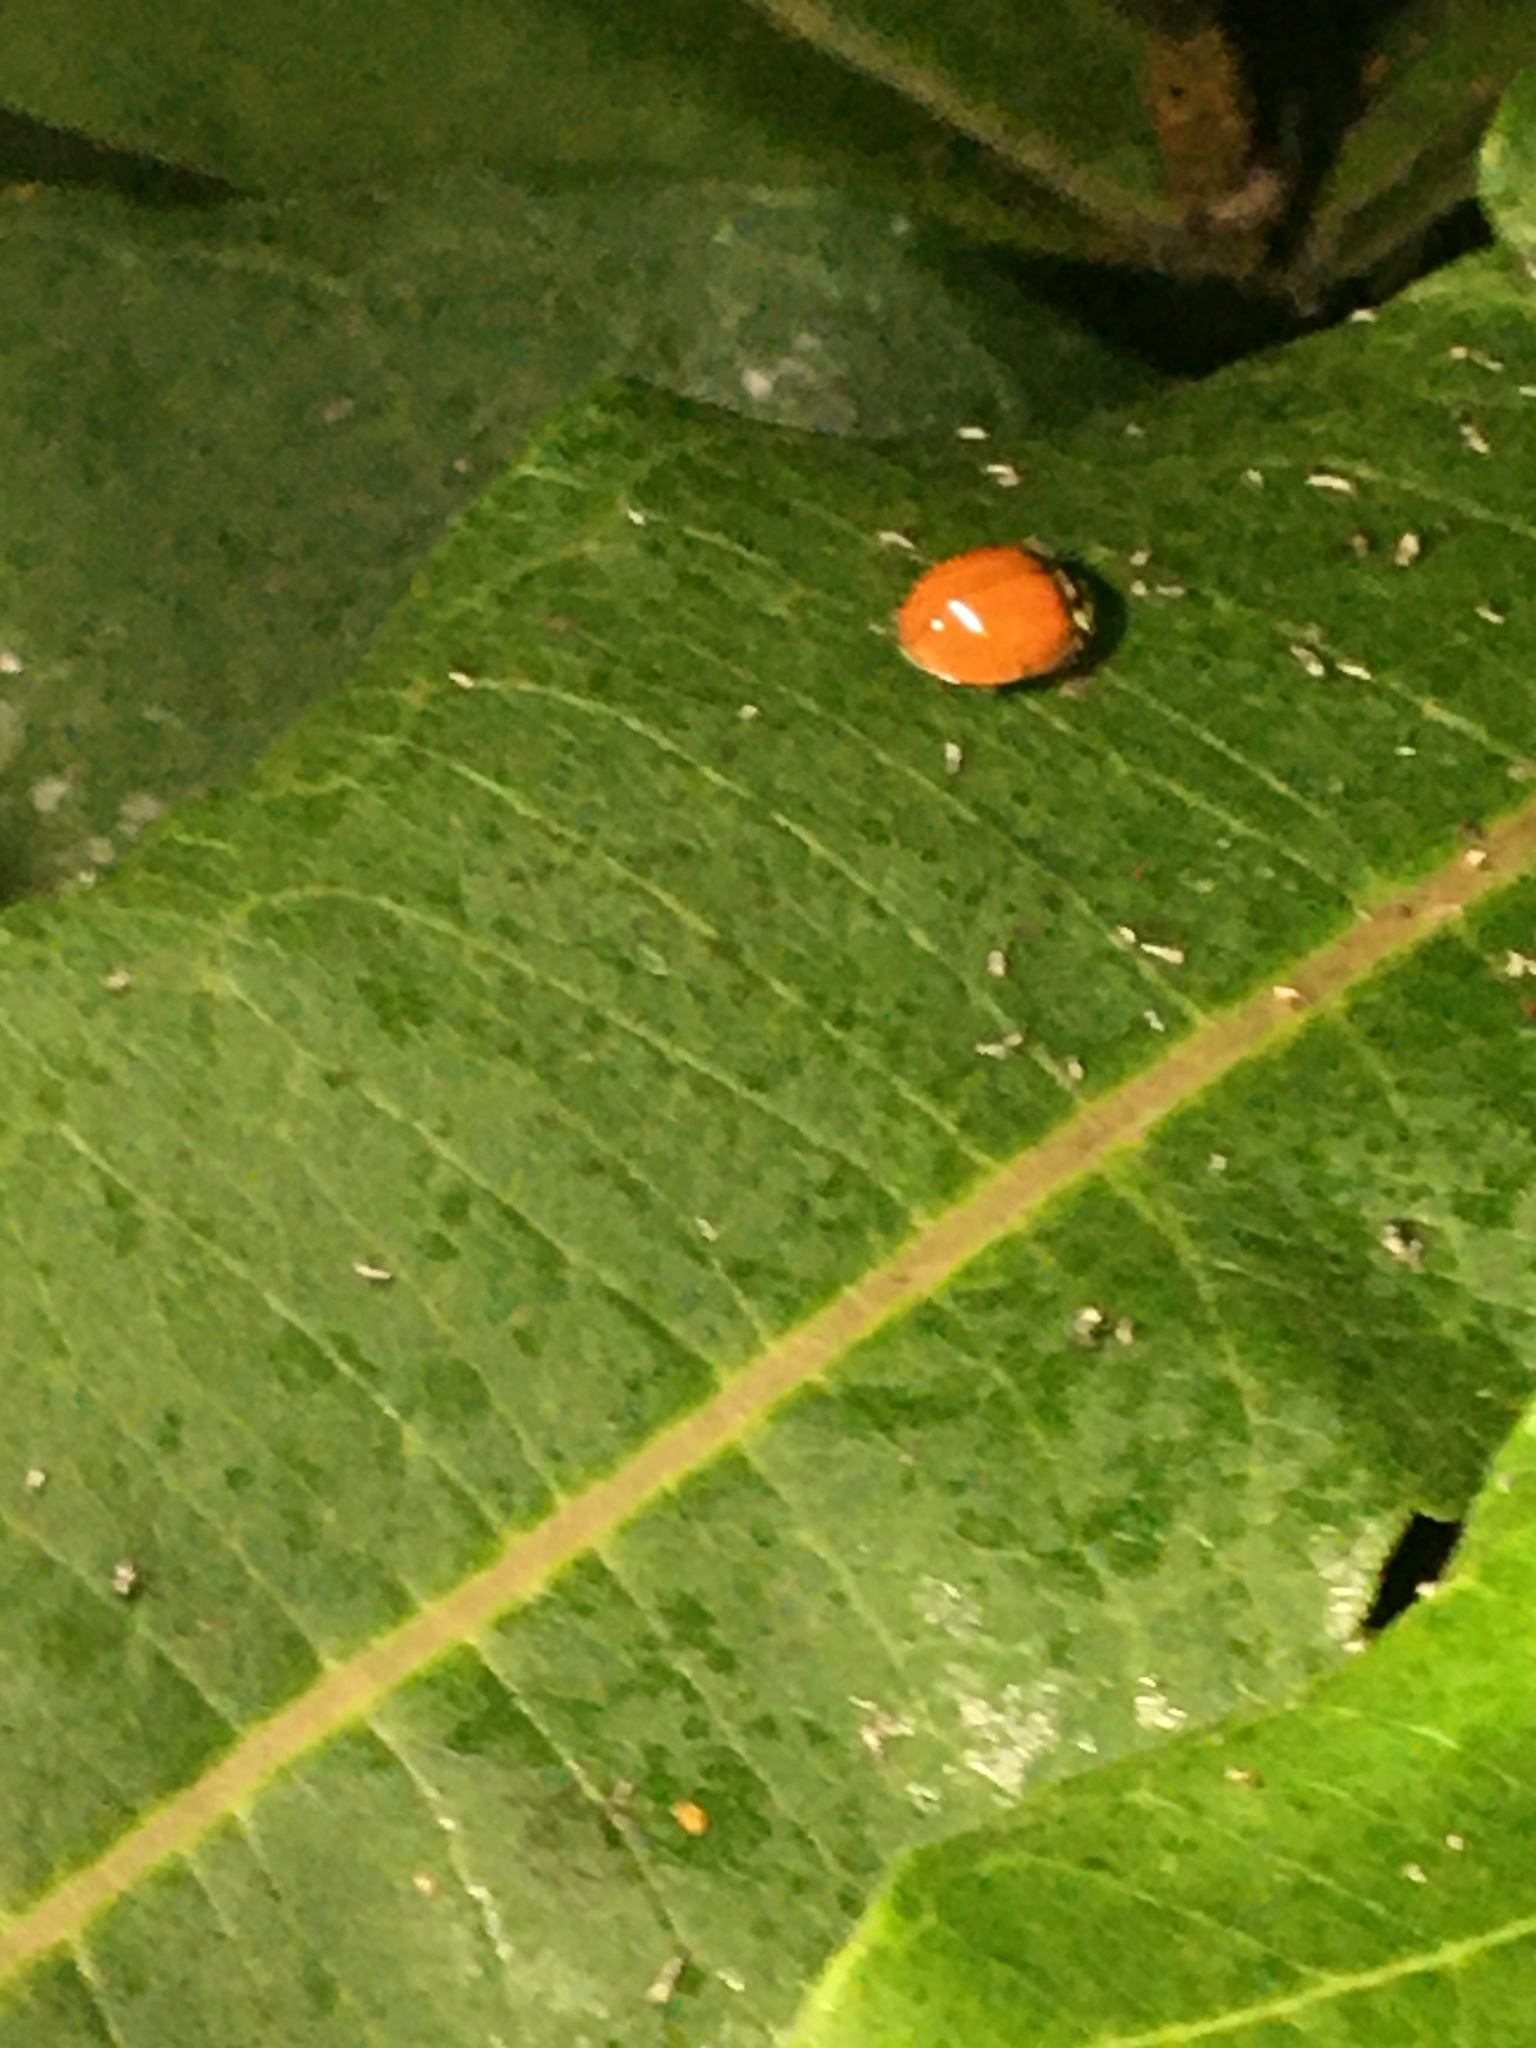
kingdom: Animalia
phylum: Arthropoda
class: Insecta
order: Coleoptera
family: Coccinellidae
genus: Harmonia
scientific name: Harmonia axyridis
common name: Harlequin ladybird
